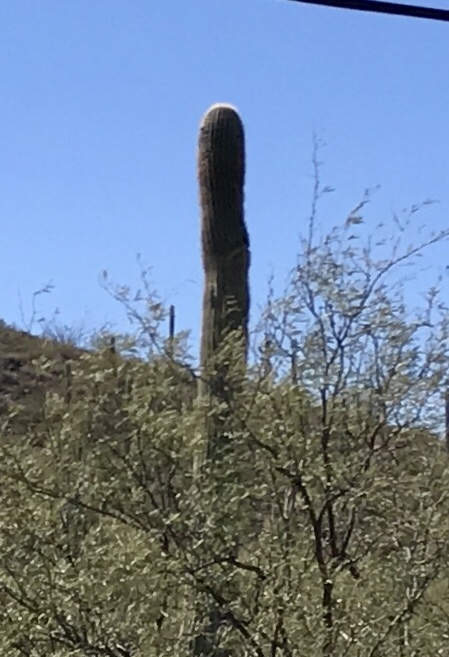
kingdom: Plantae
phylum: Tracheophyta
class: Magnoliopsida
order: Caryophyllales
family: Cactaceae
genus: Carnegiea
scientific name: Carnegiea gigantea
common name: Saguaro
